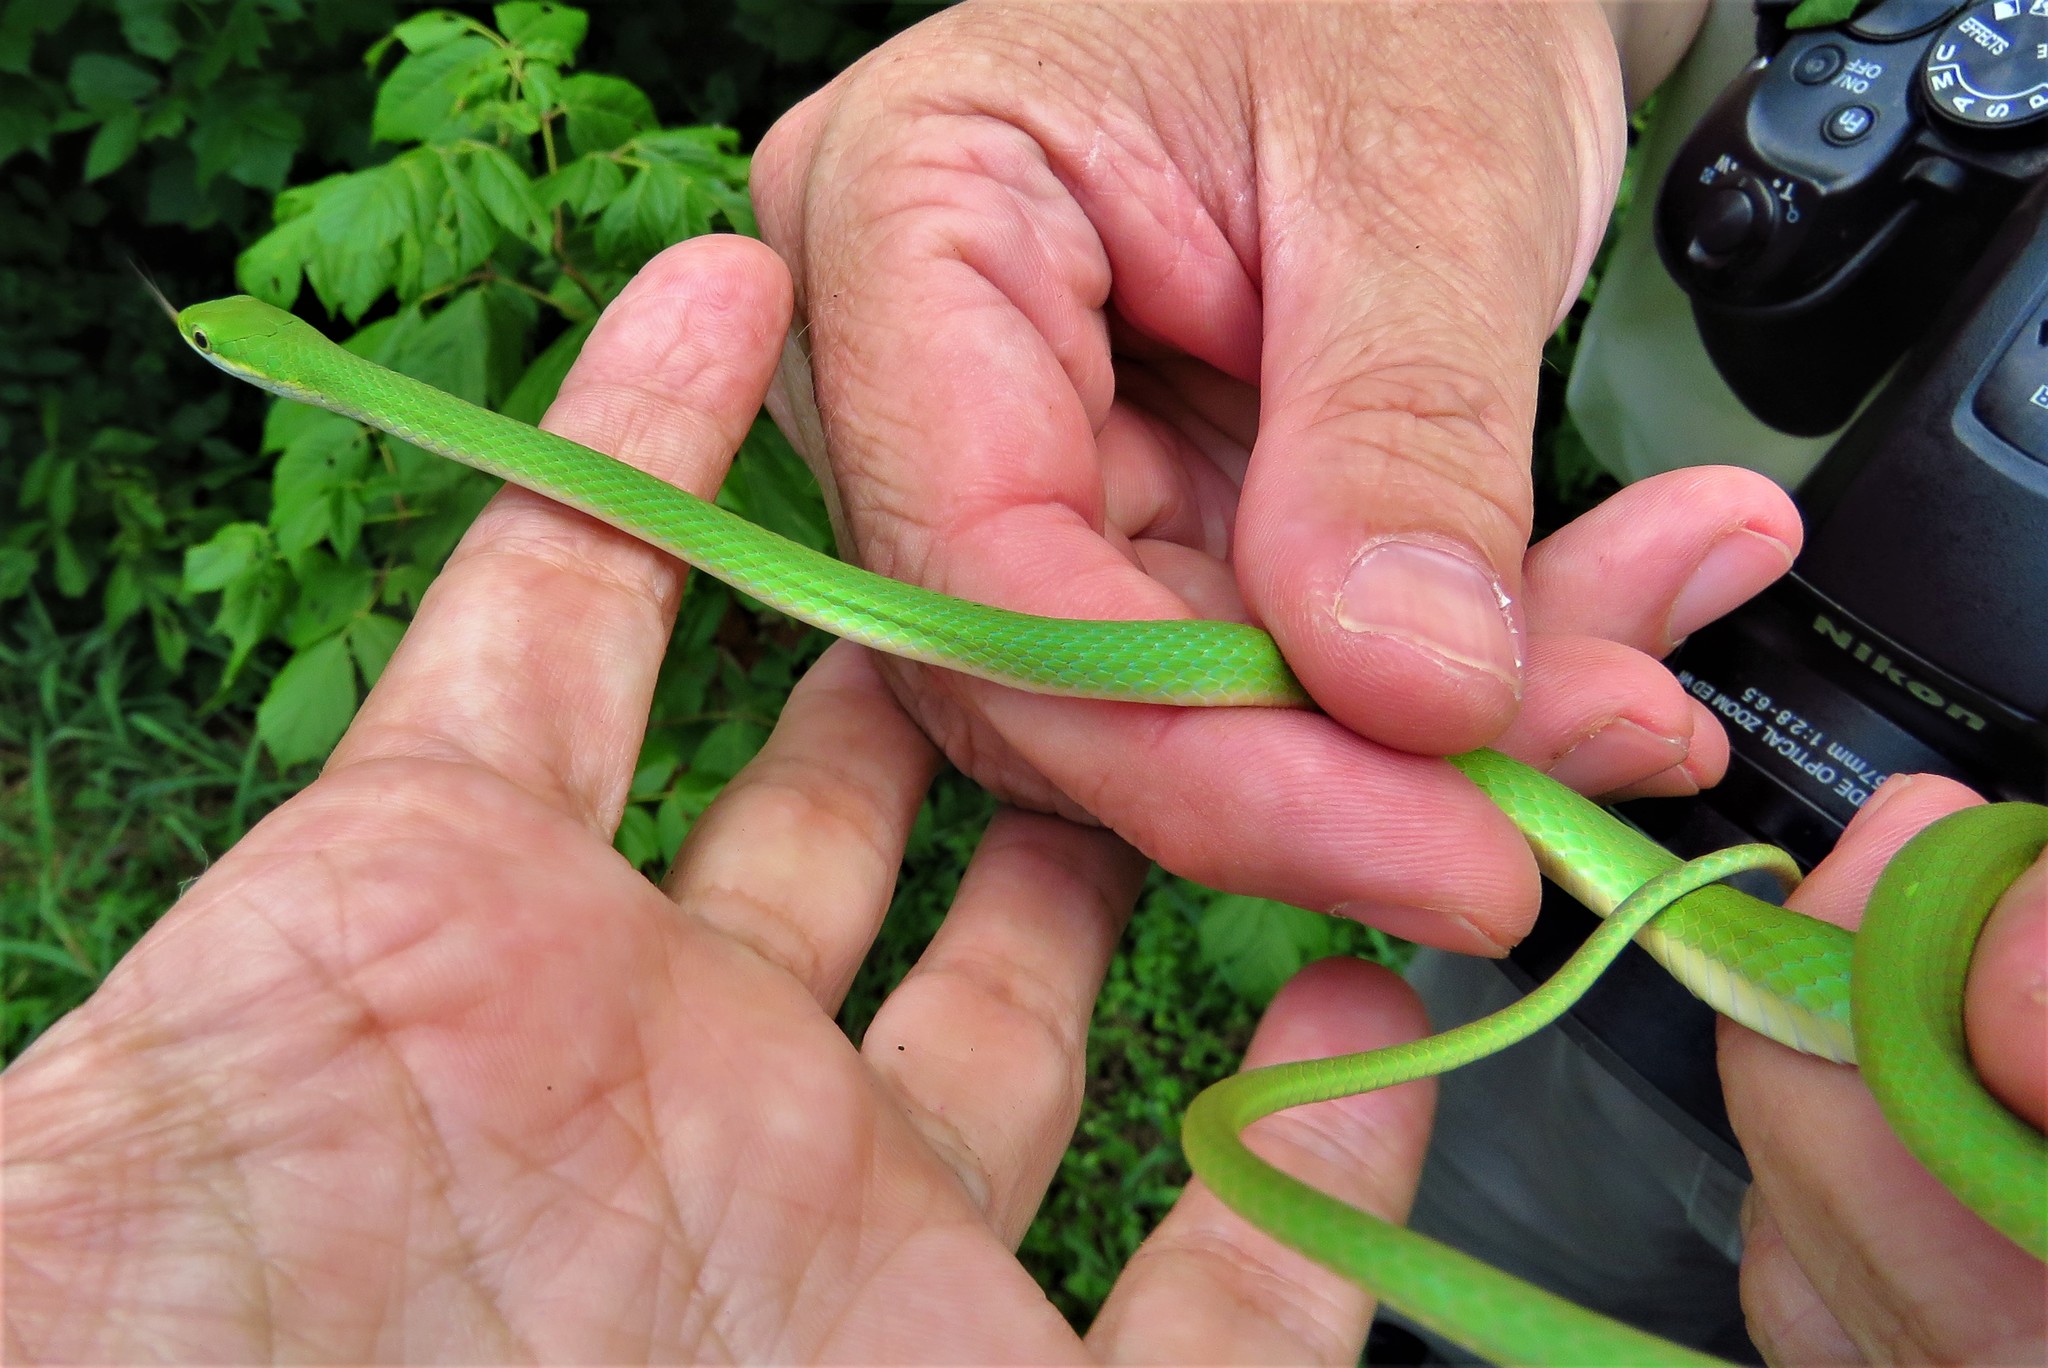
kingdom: Animalia
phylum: Chordata
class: Squamata
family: Colubridae
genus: Opheodrys
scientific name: Opheodrys aestivus
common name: Rough greensnake
